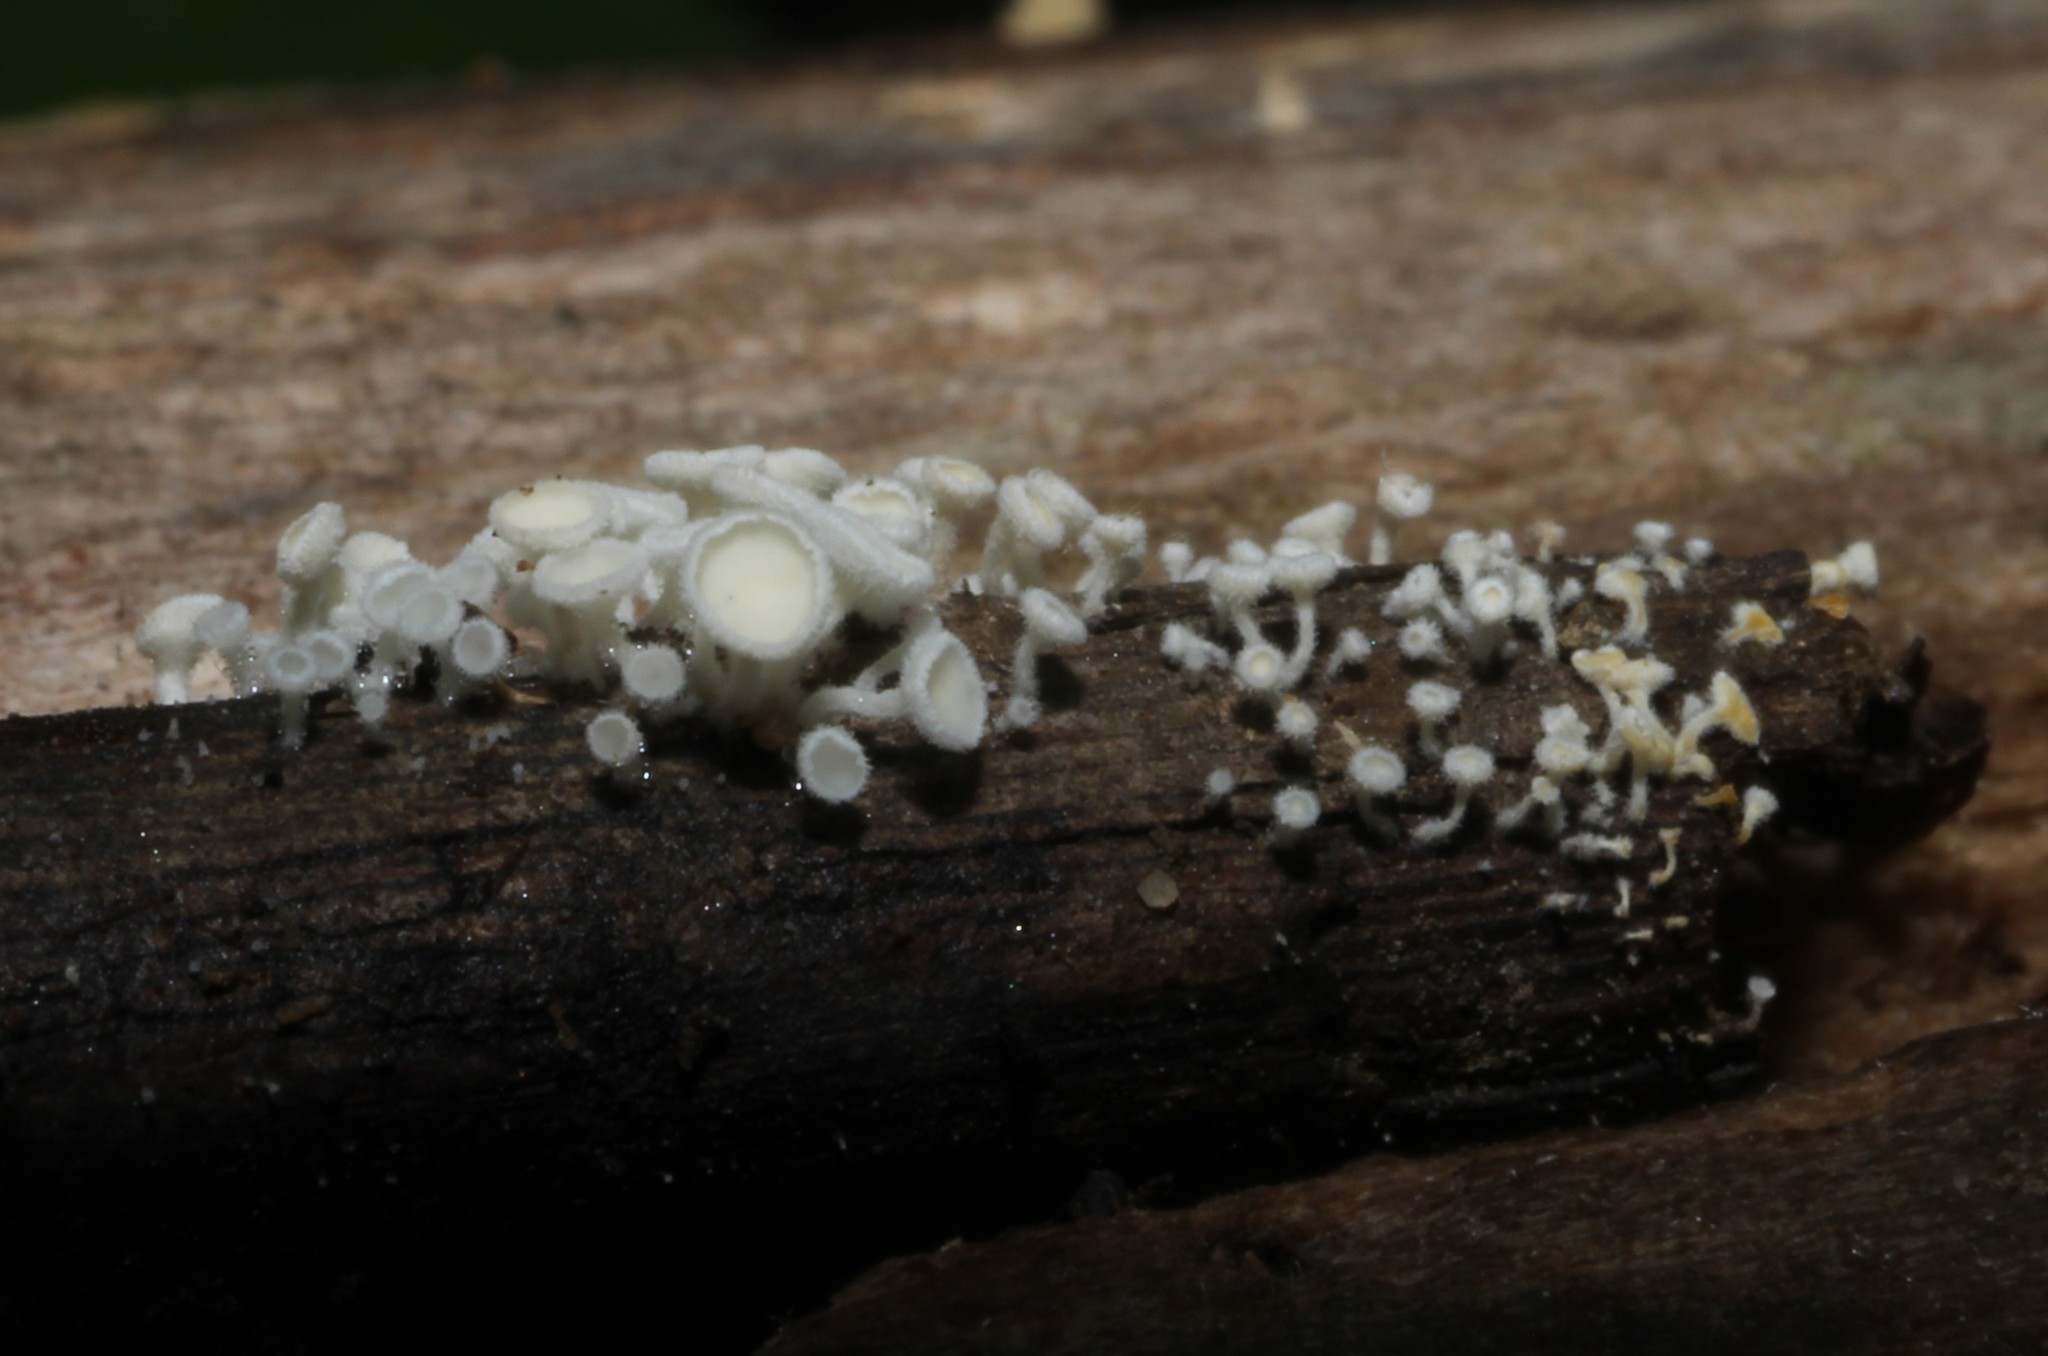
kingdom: Fungi
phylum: Ascomycota
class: Leotiomycetes
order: Helotiales
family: Lachnaceae
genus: Lachnum
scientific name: Lachnum virgineum
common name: Snowy disco
